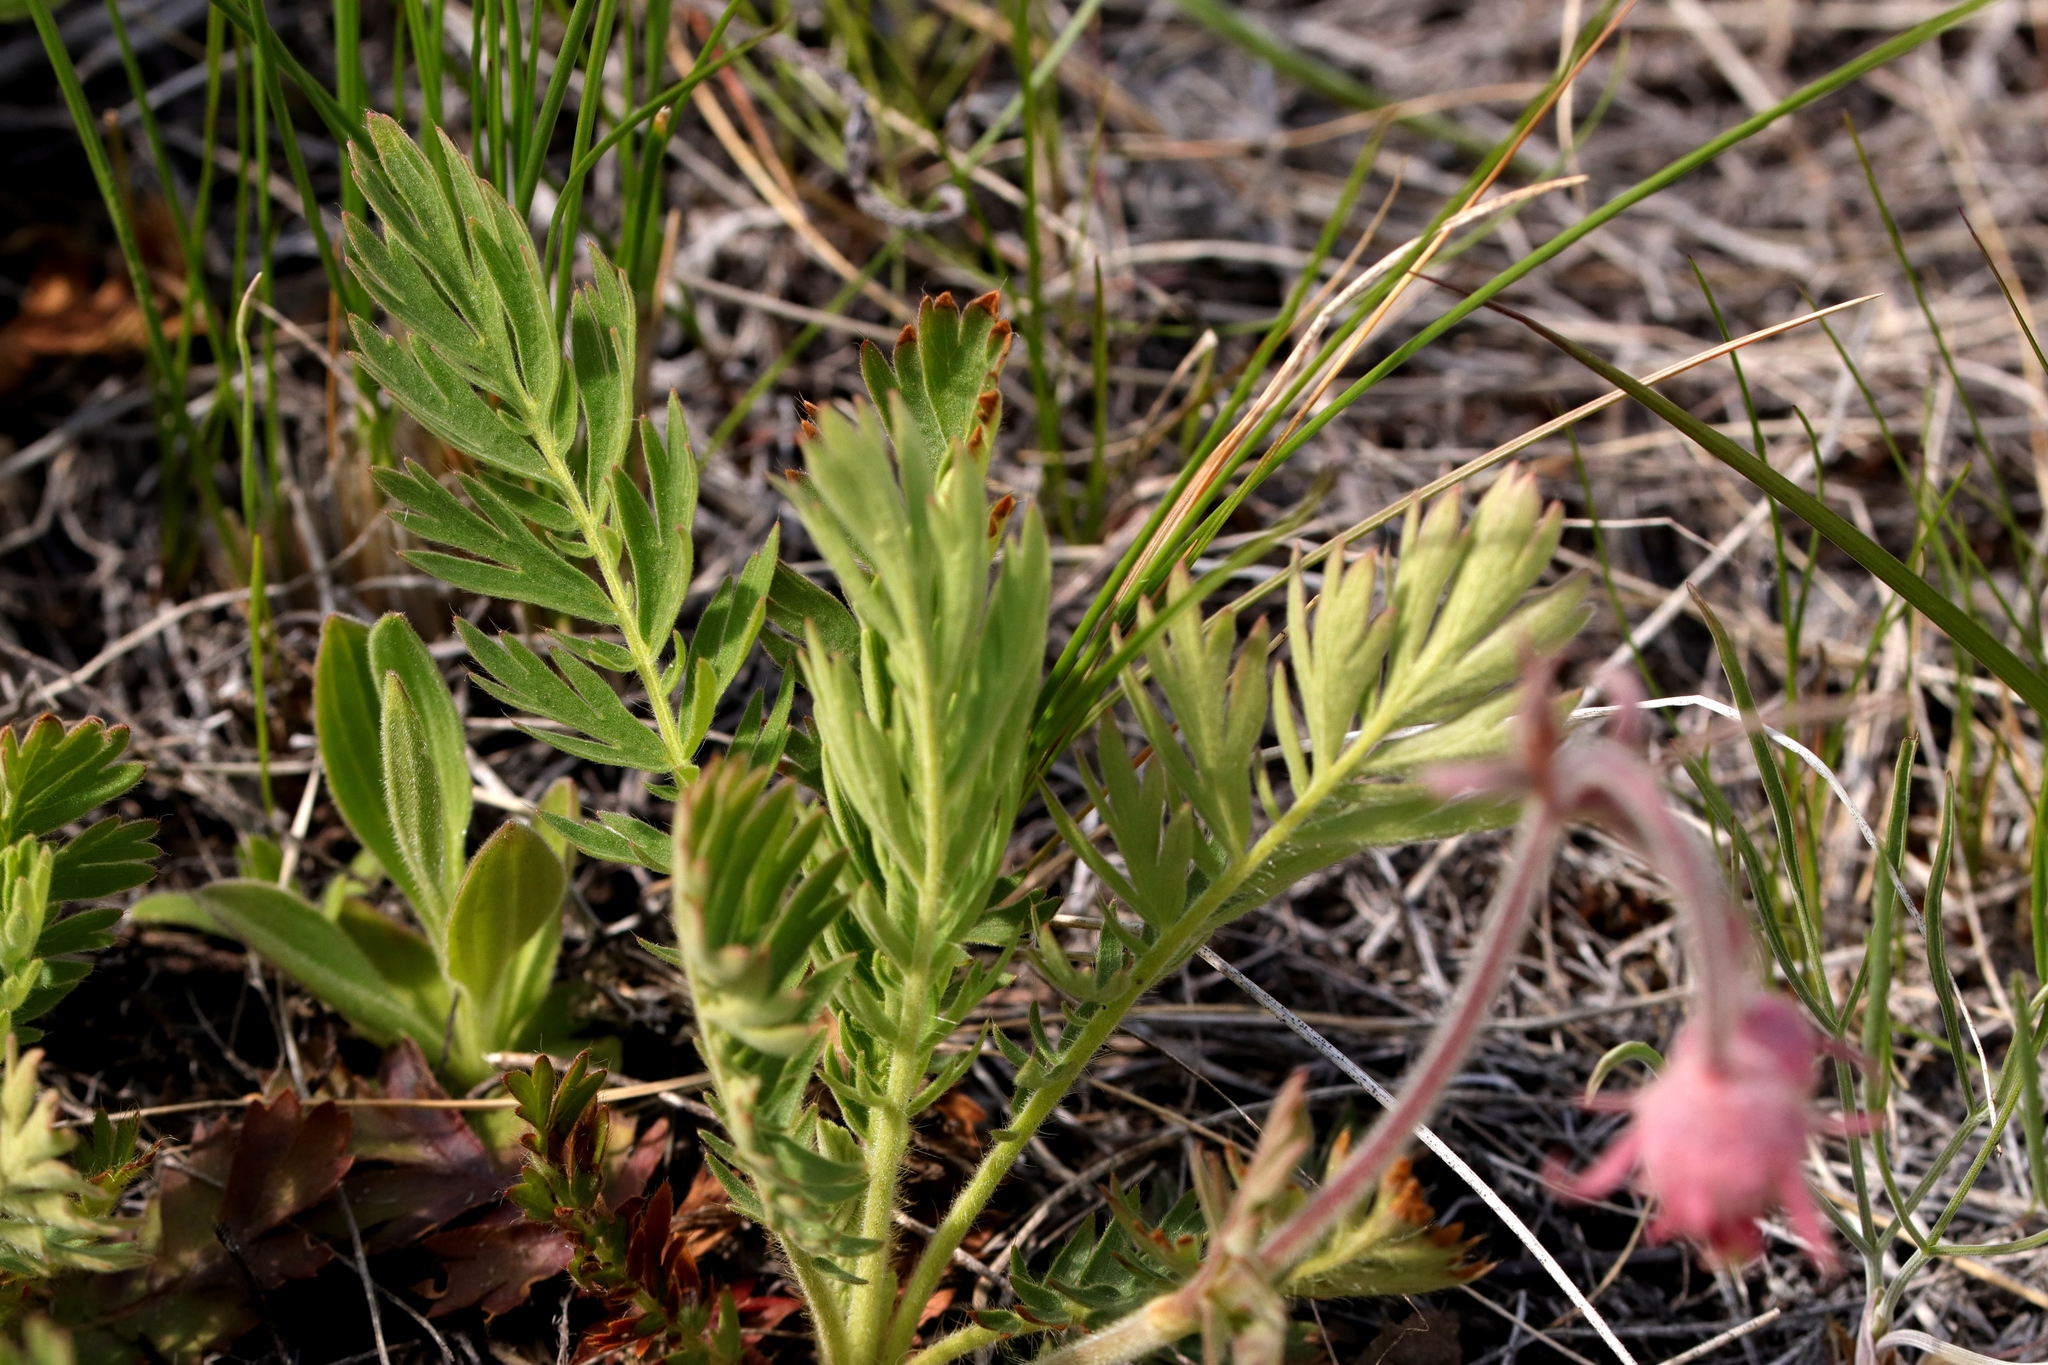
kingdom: Plantae
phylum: Tracheophyta
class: Magnoliopsida
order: Rosales
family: Rosaceae
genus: Geum
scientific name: Geum triflorum
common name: Old man's whiskers
